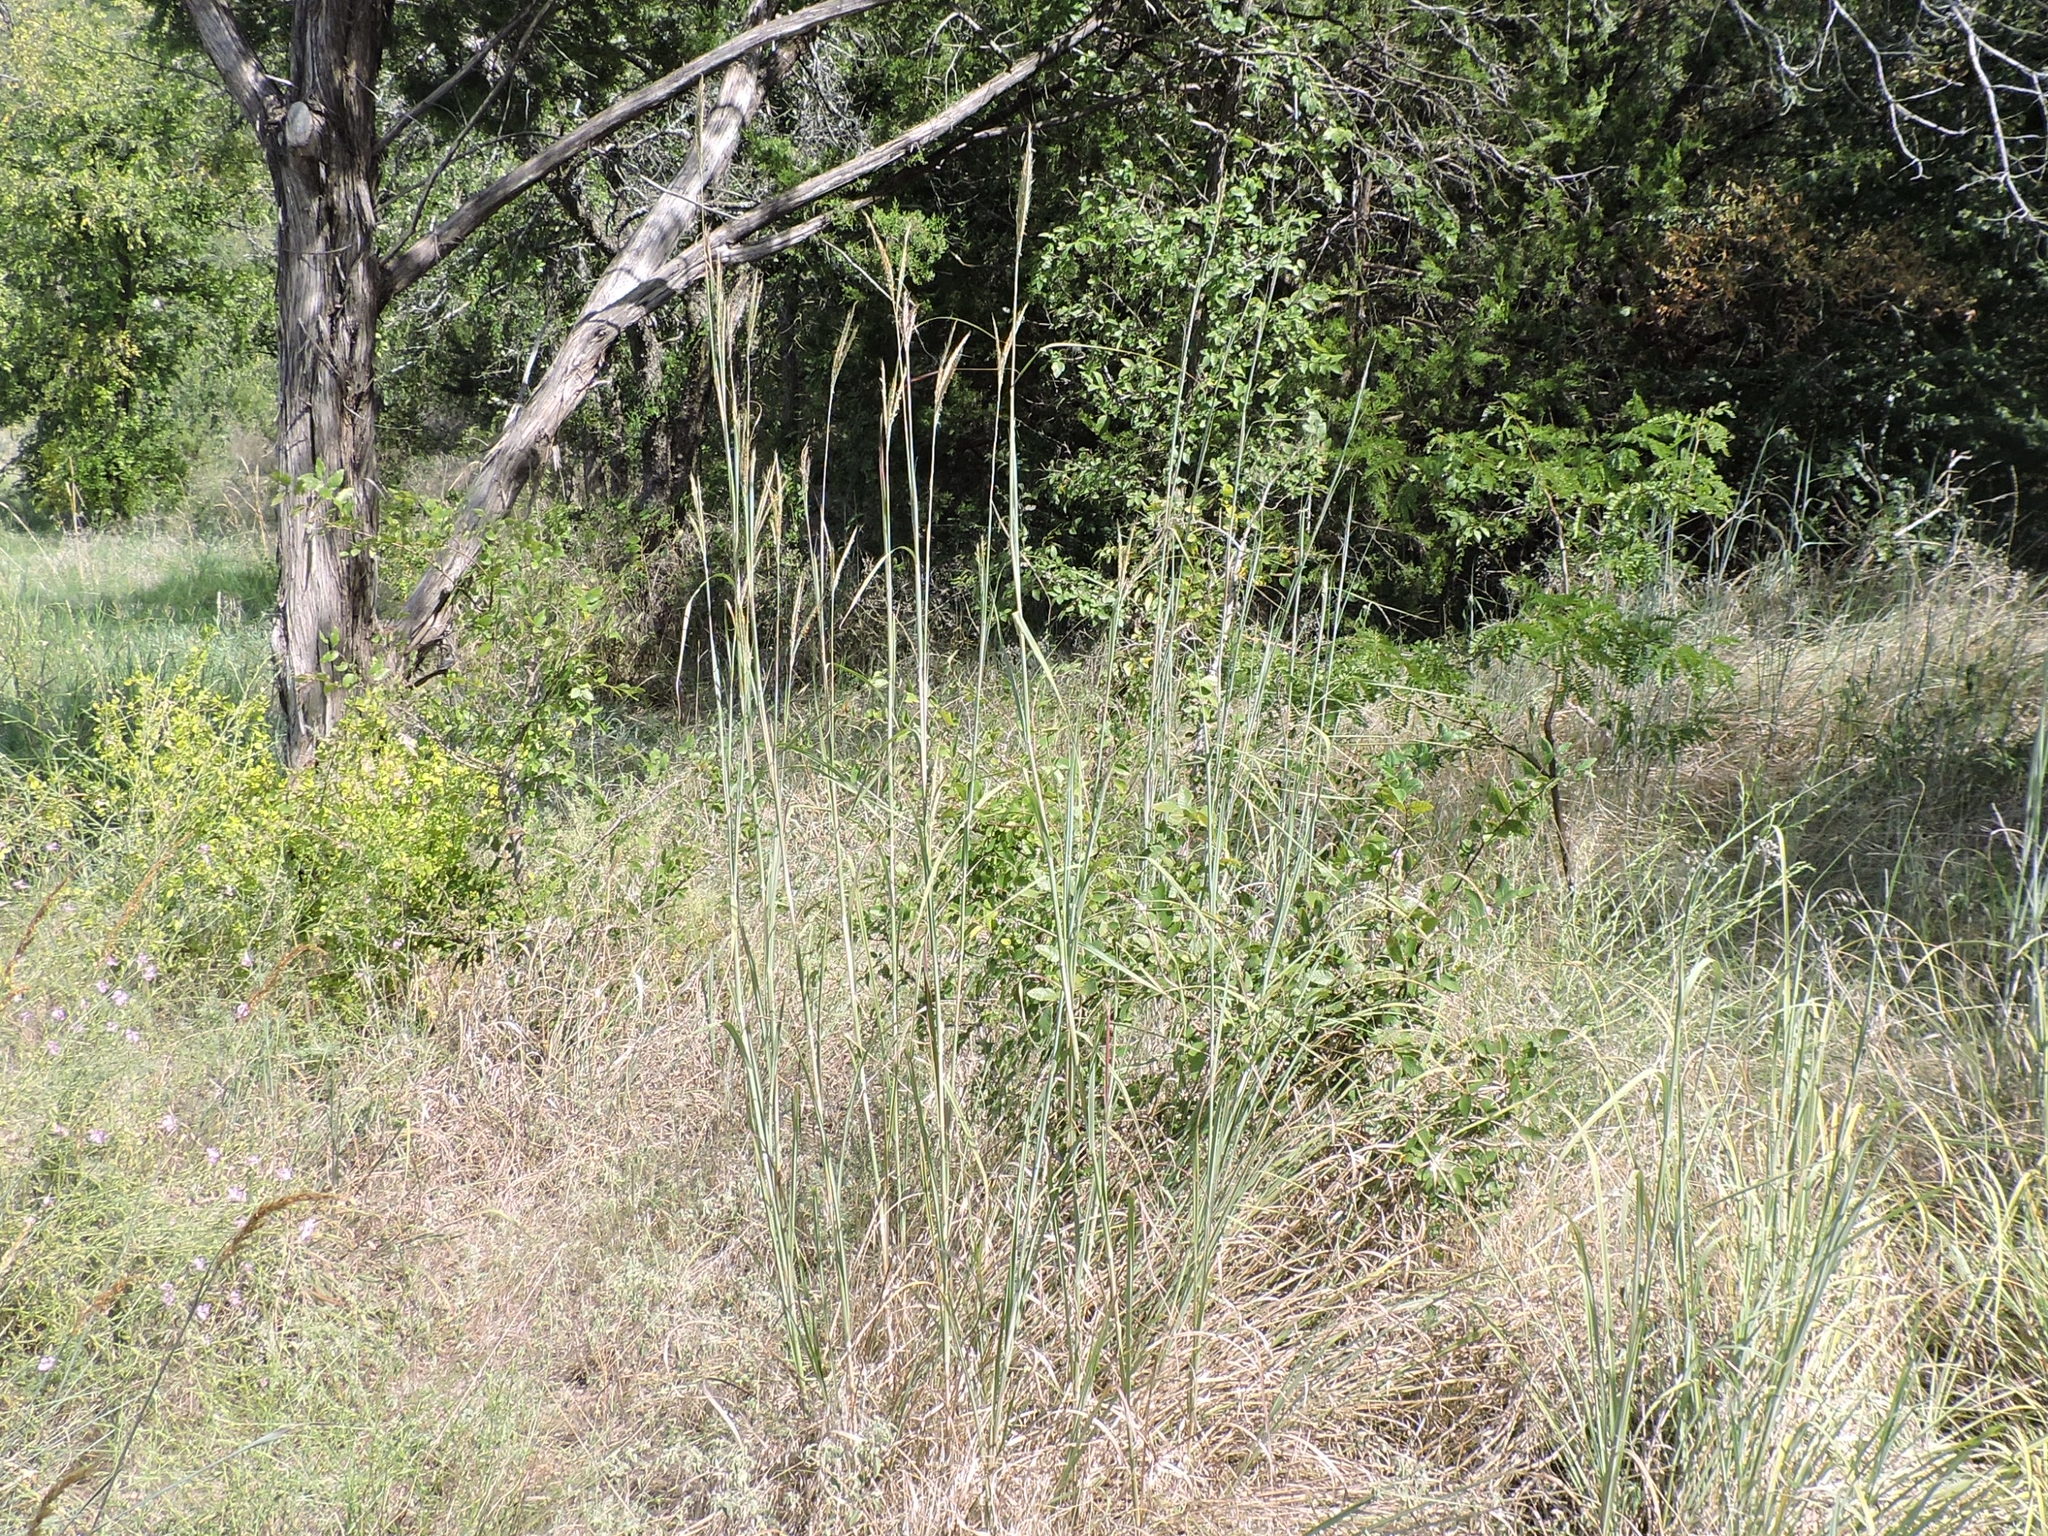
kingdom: Plantae
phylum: Tracheophyta
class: Liliopsida
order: Poales
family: Poaceae
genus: Andropogon
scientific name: Andropogon gerardi
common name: Big bluestem
